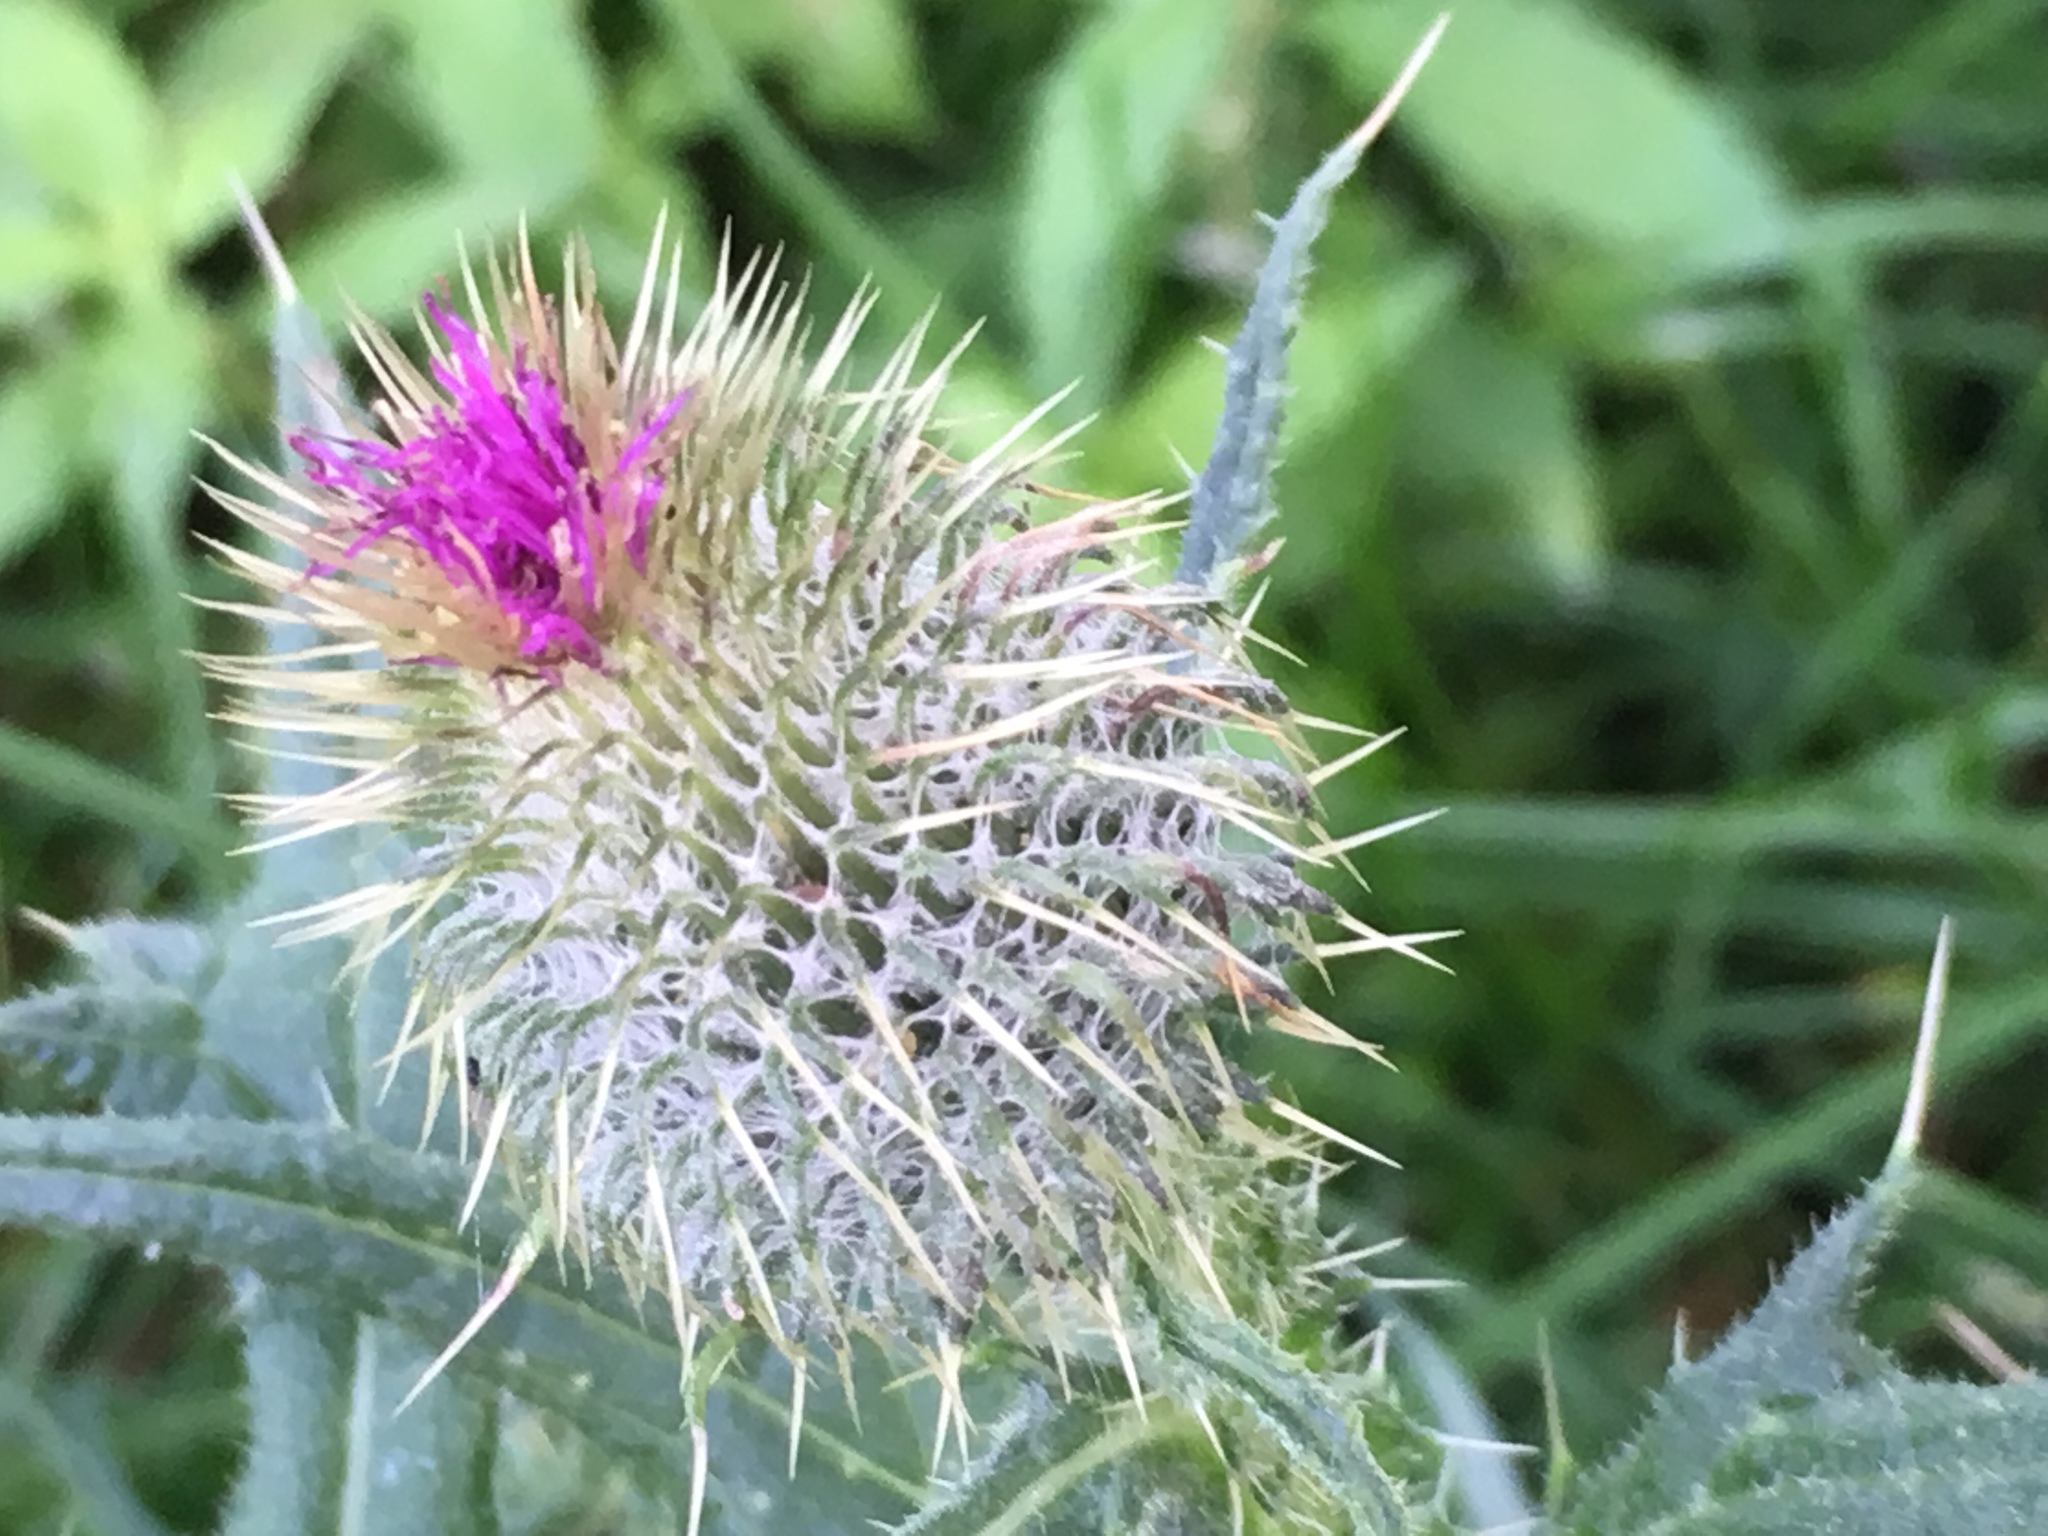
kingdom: Plantae
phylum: Tracheophyta
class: Magnoliopsida
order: Asterales
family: Asteraceae
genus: Cirsium
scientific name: Cirsium vulgare
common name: Bull thistle
